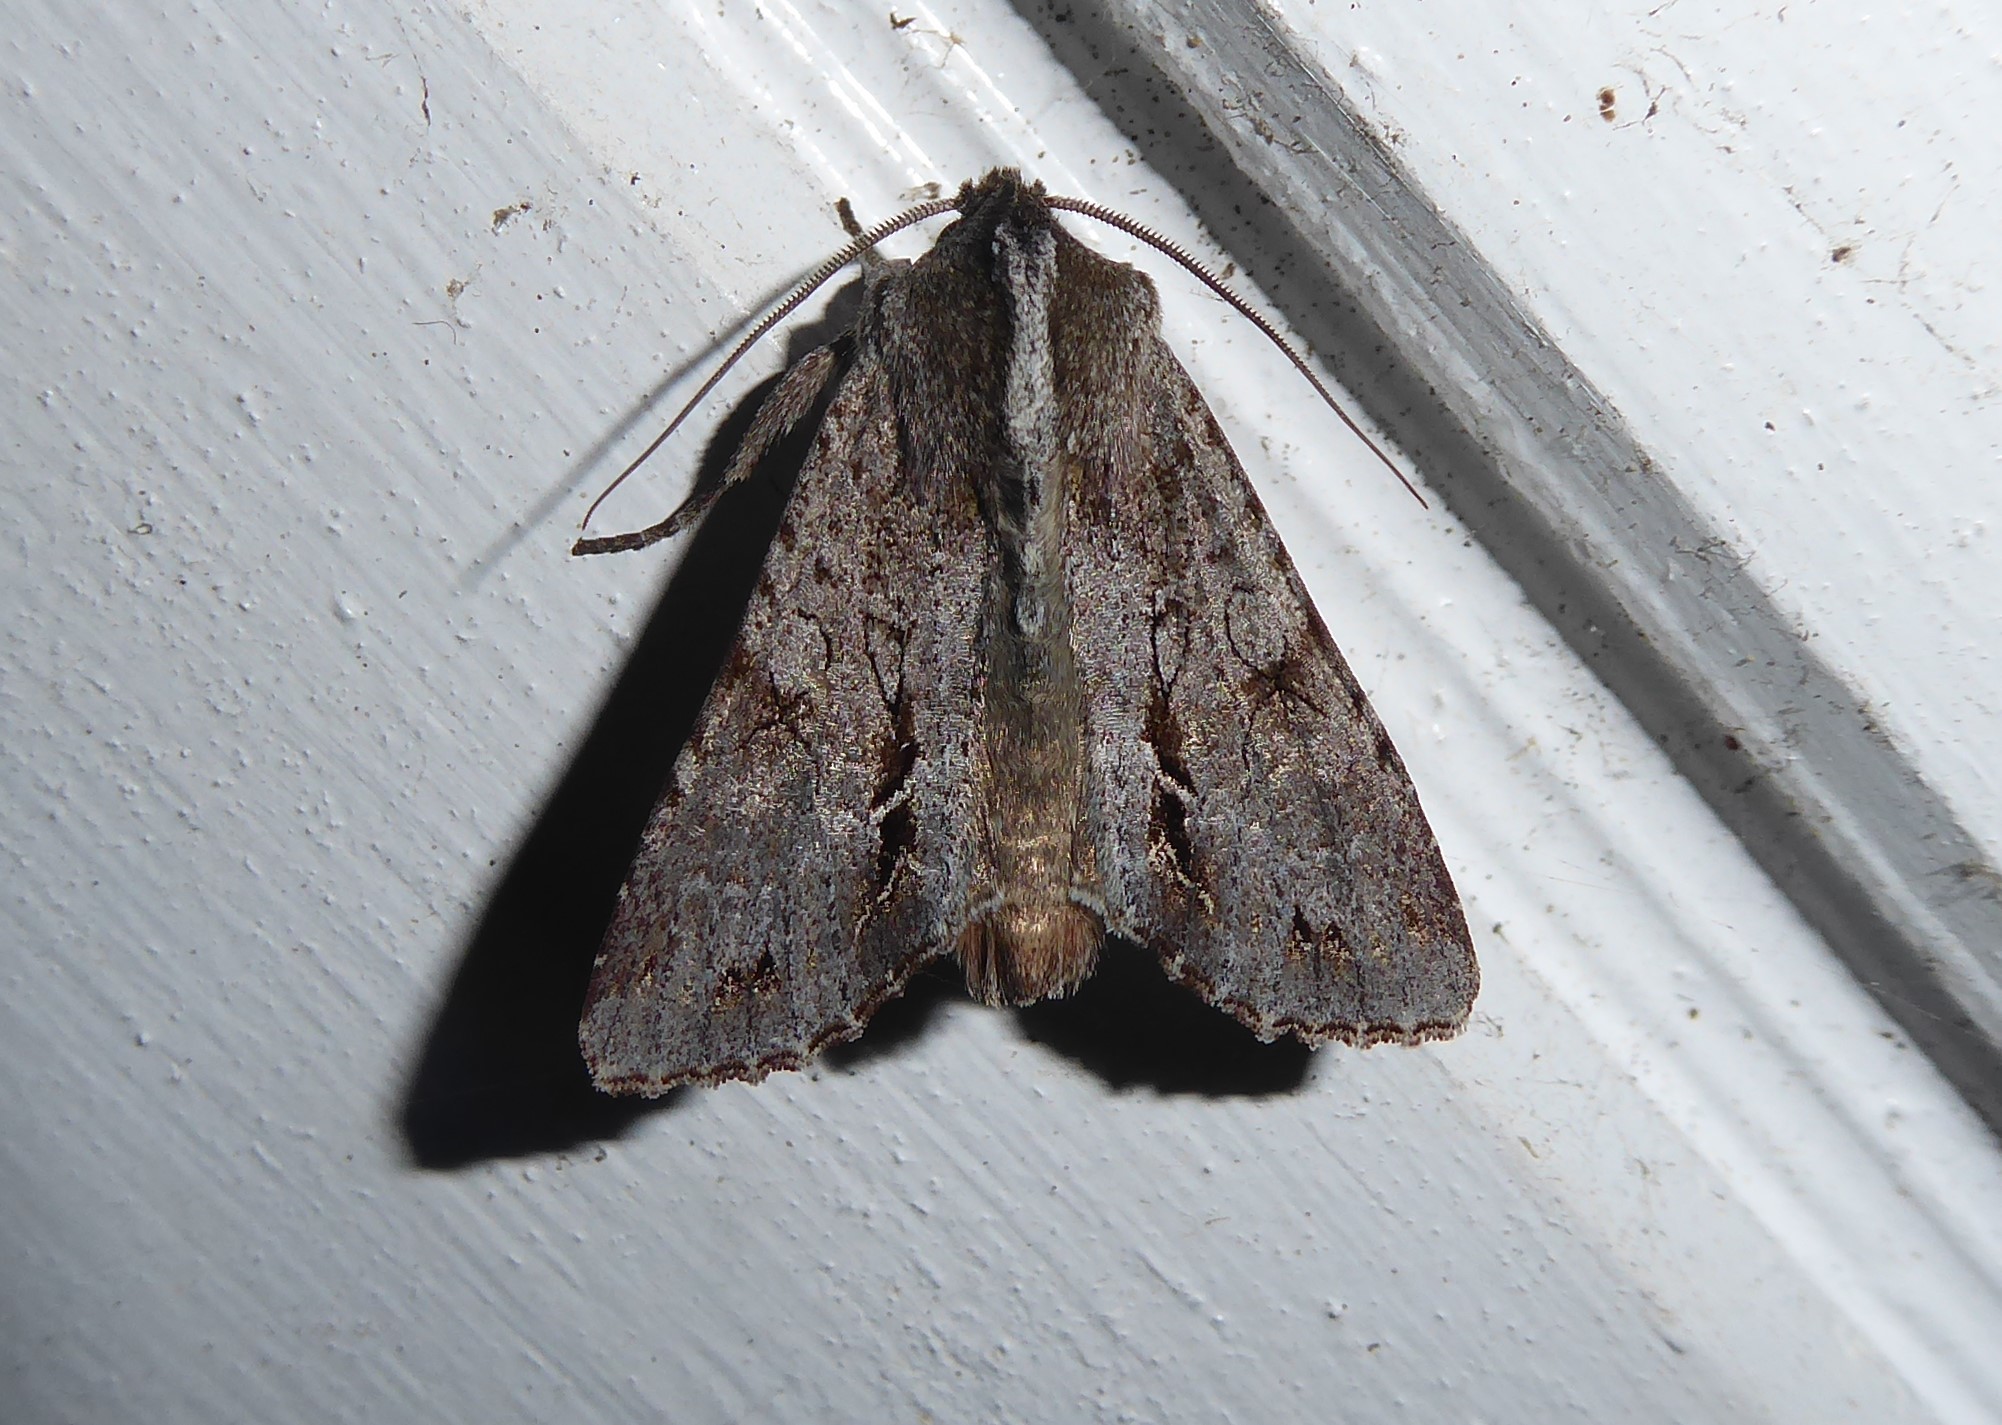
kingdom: Animalia
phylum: Arthropoda
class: Insecta
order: Lepidoptera
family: Noctuidae
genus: Ichneutica
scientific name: Ichneutica
